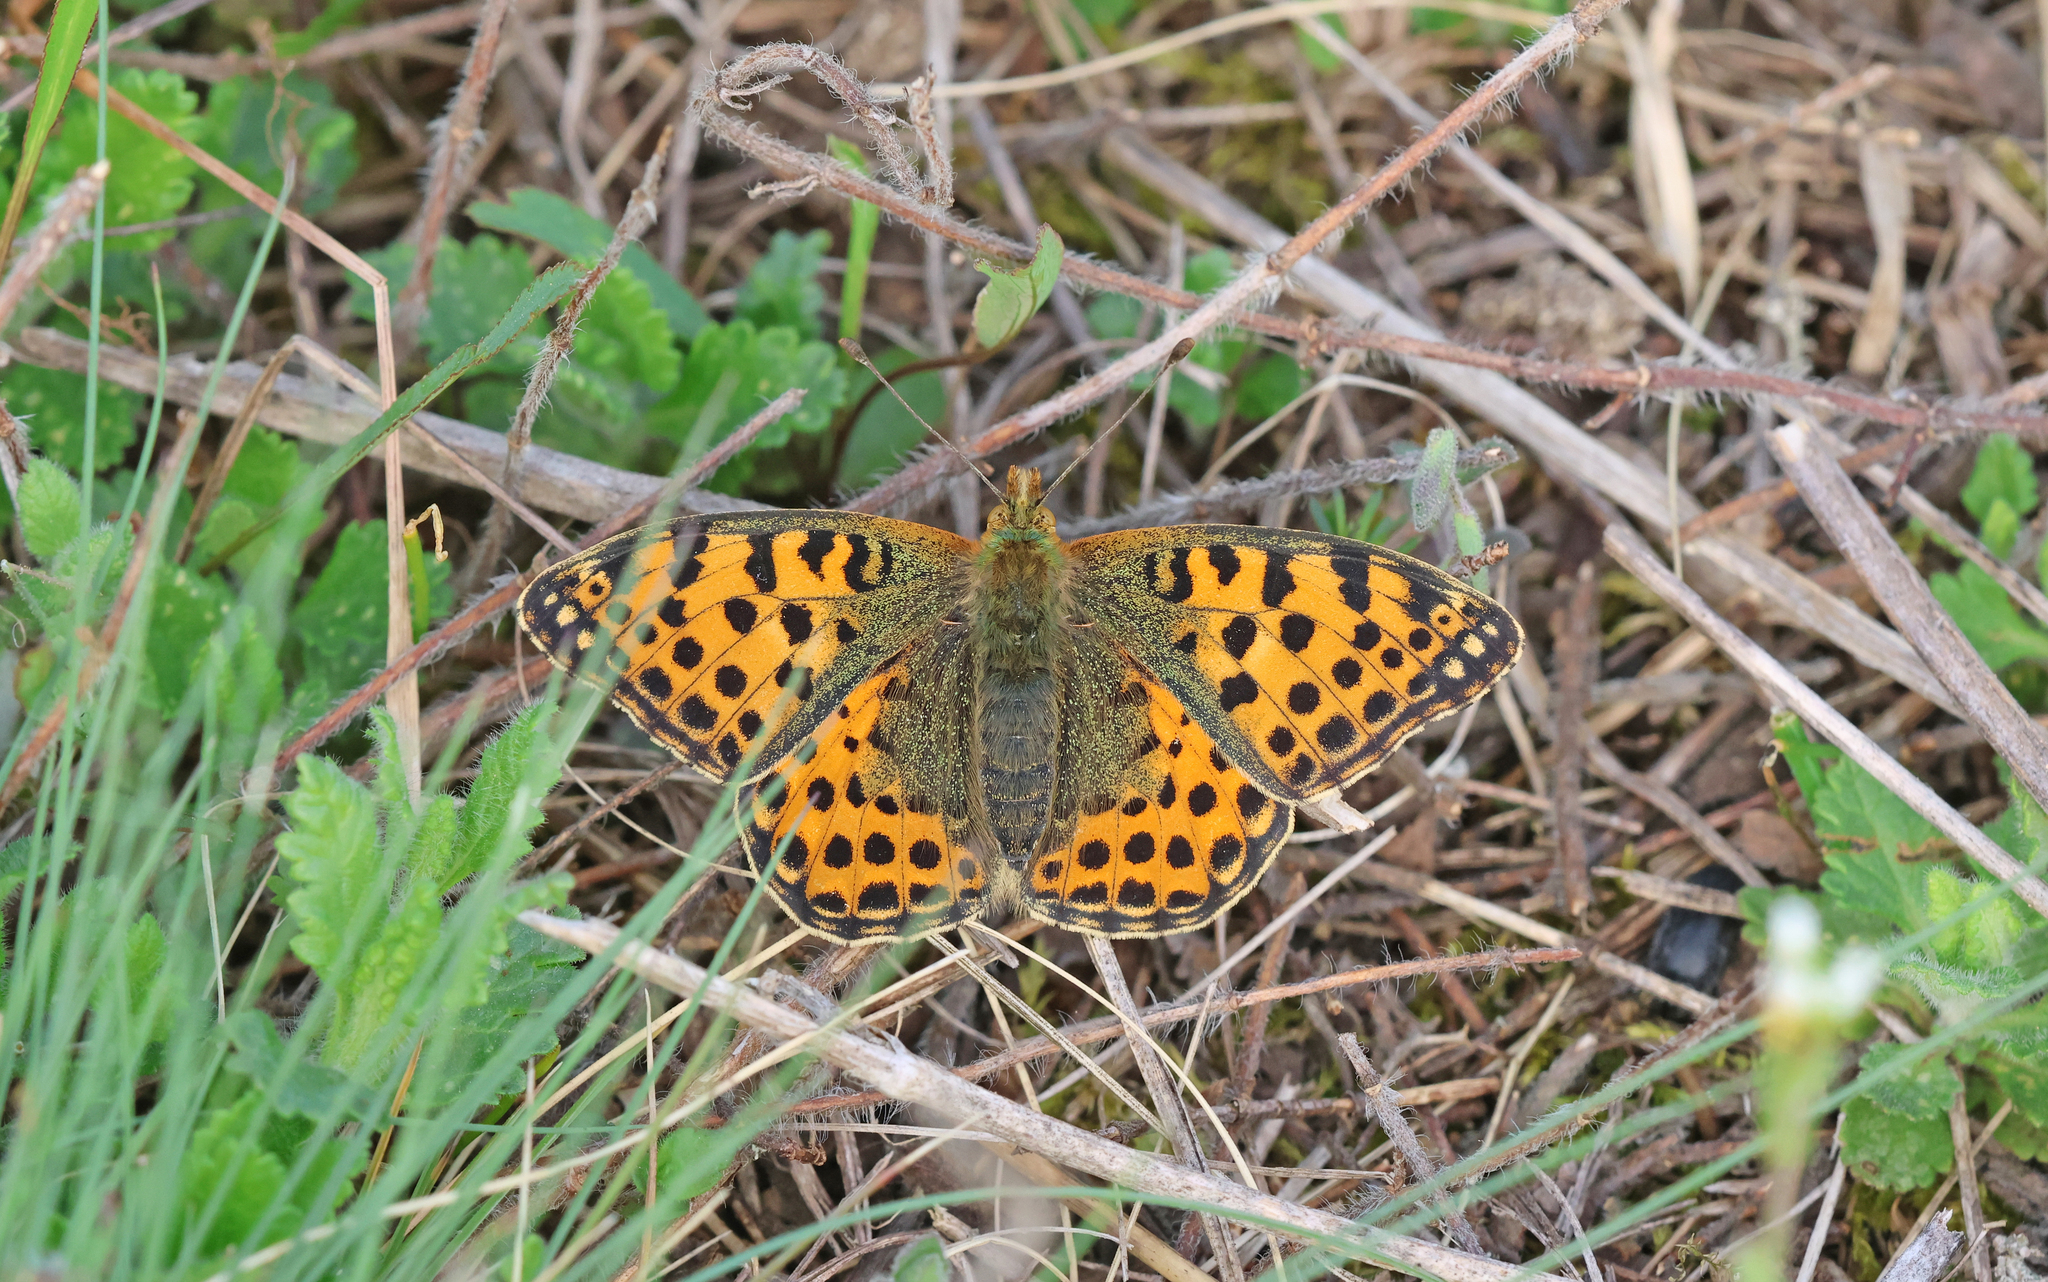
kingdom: Animalia
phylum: Arthropoda
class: Insecta
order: Lepidoptera
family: Nymphalidae
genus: Issoria
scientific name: Issoria lathonia
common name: Queen of spain fritillary
